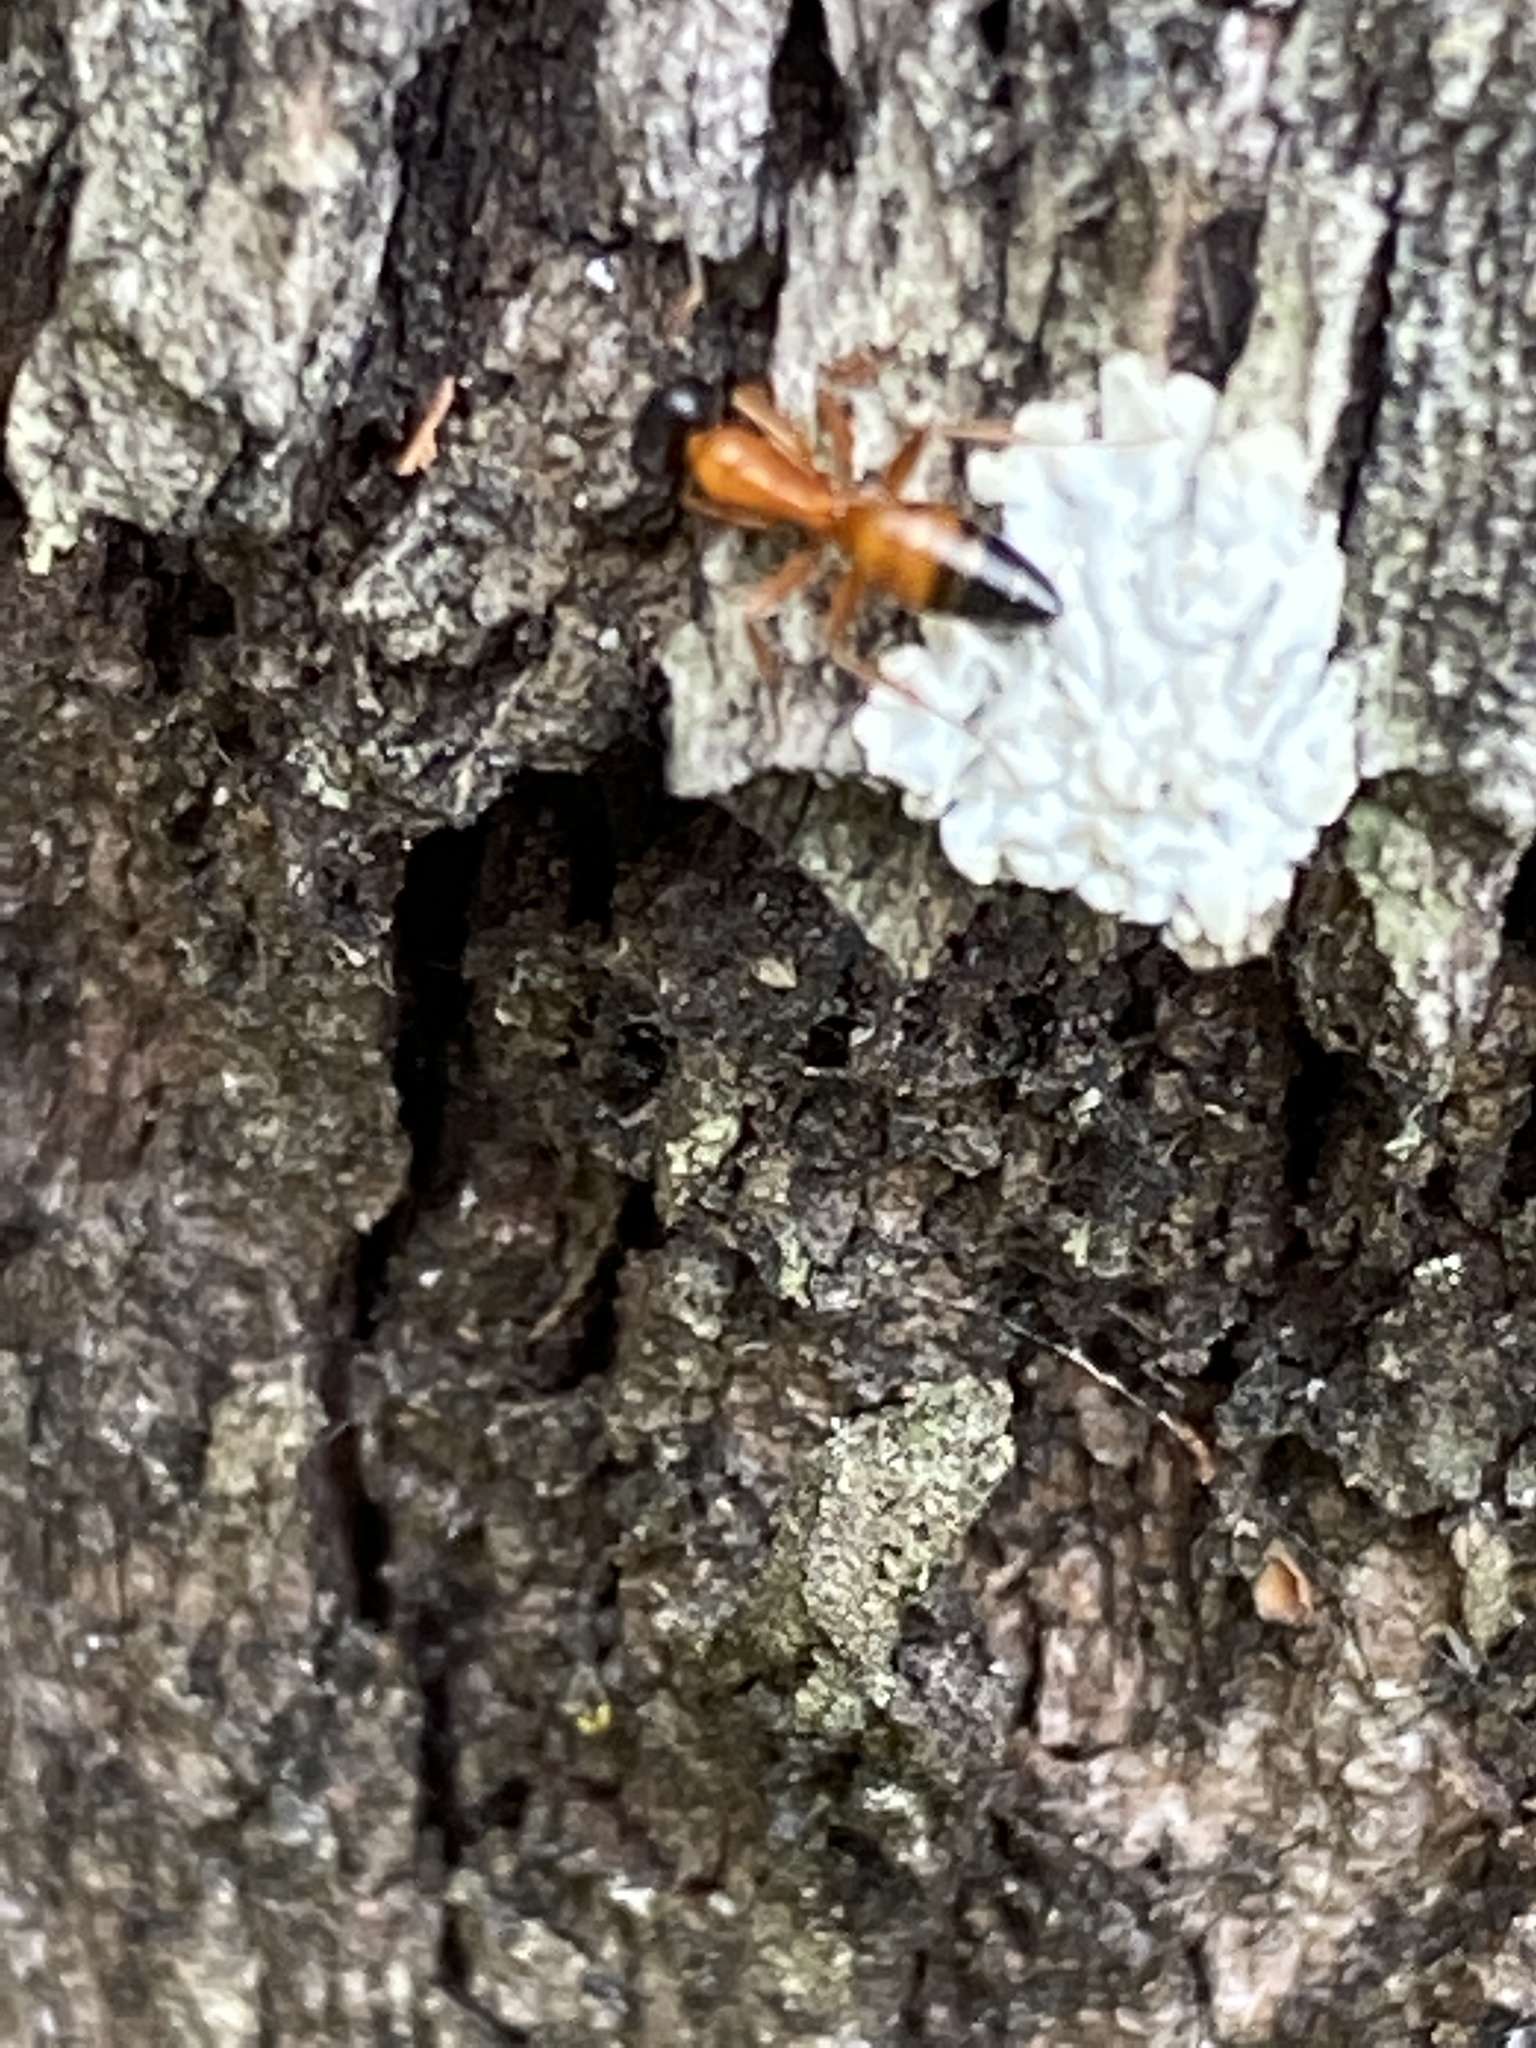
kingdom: Animalia
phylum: Arthropoda
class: Insecta
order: Hymenoptera
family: Formicidae
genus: Opisthopsis
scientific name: Opisthopsis rufithorax
